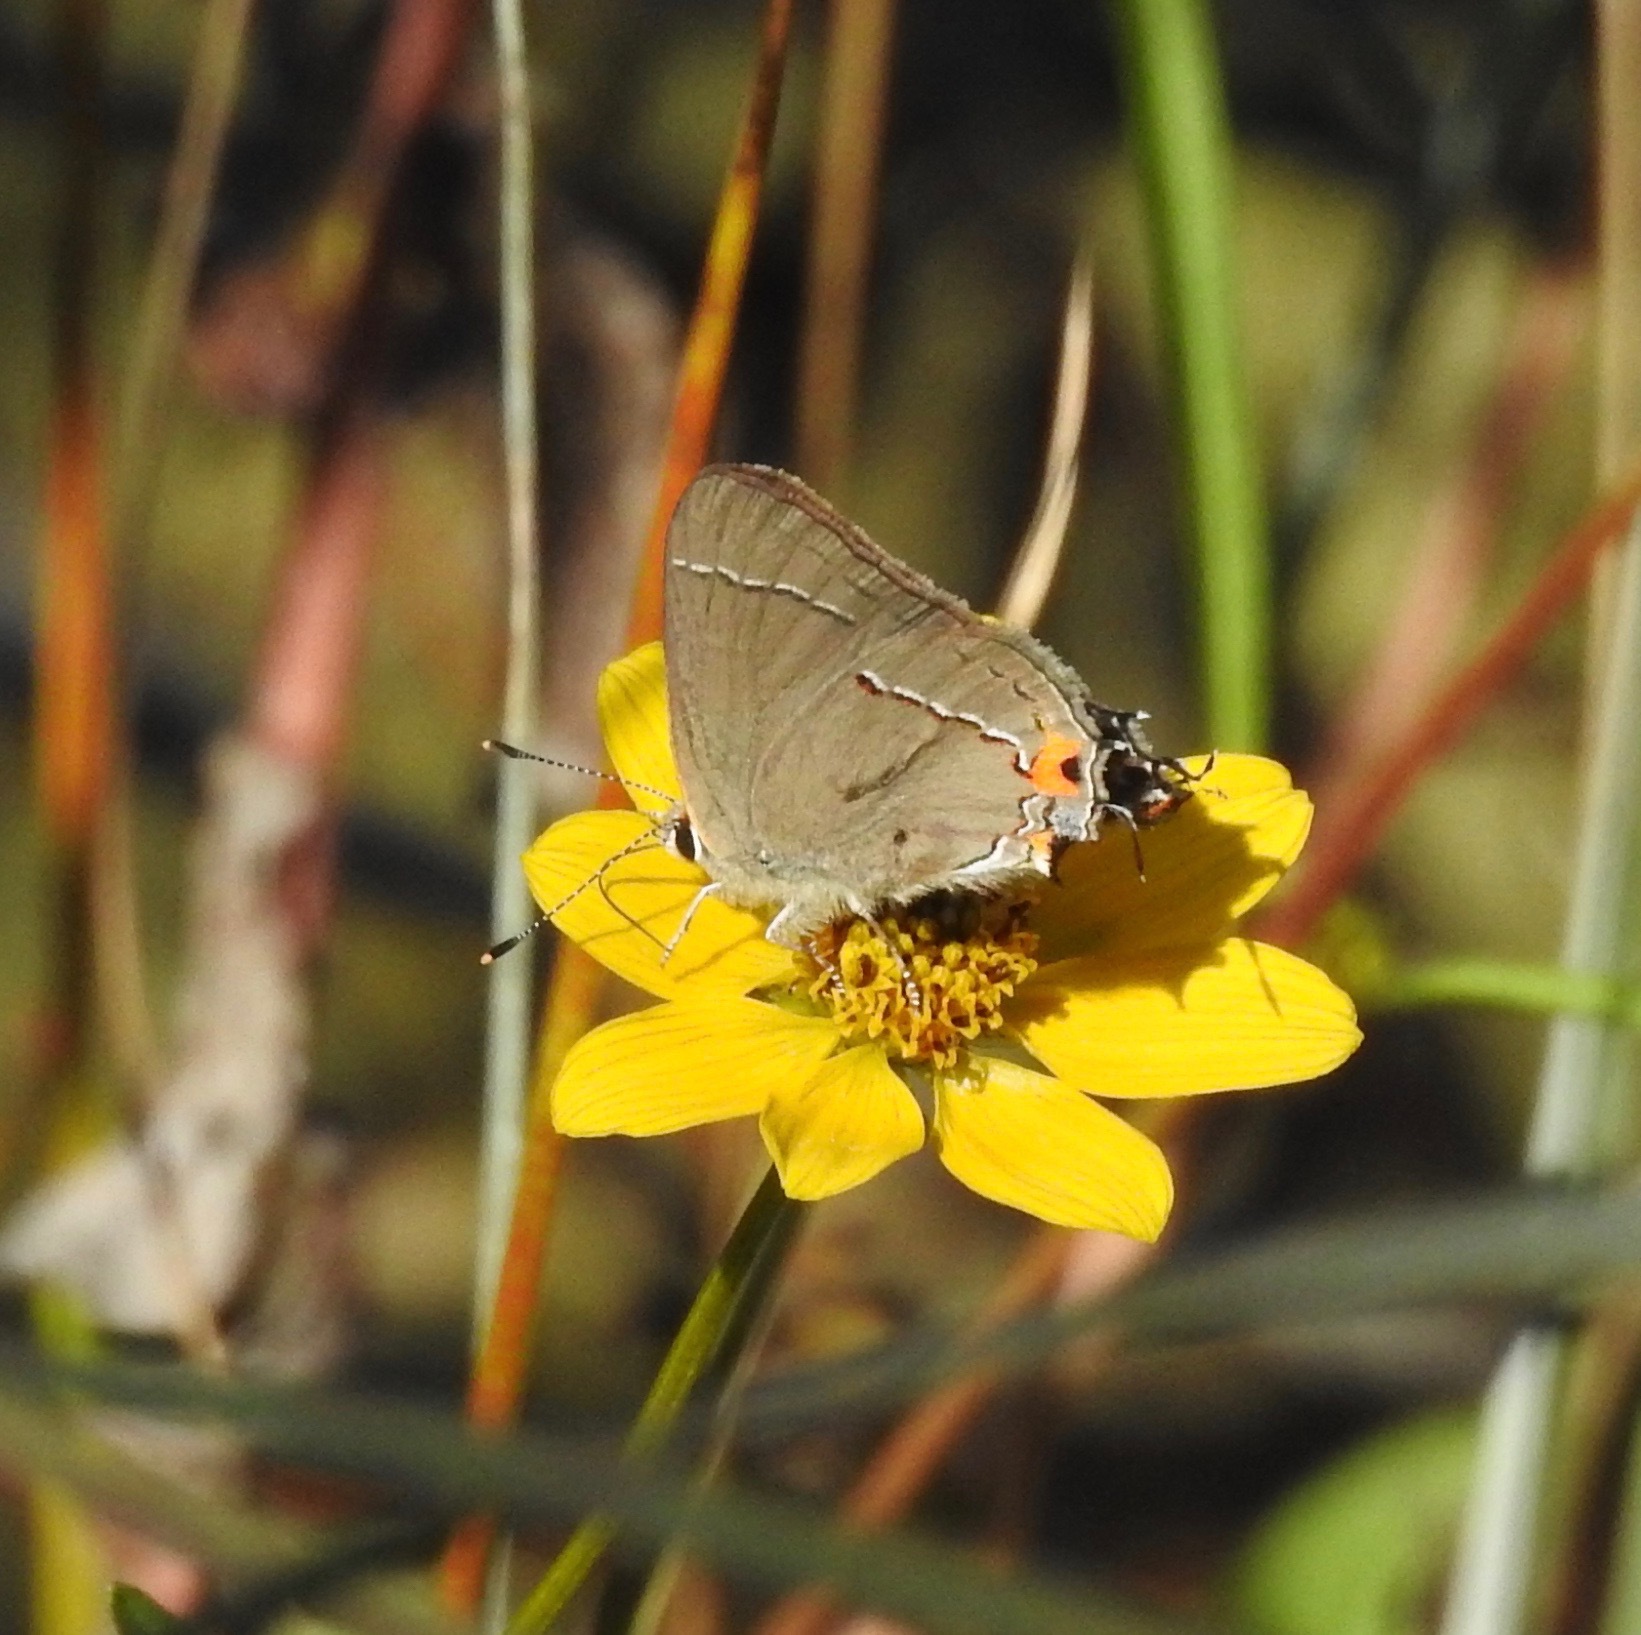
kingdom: Animalia
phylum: Arthropoda
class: Insecta
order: Lepidoptera
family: Lycaenidae
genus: Strymon
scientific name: Strymon melinus
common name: Gray hairstreak
